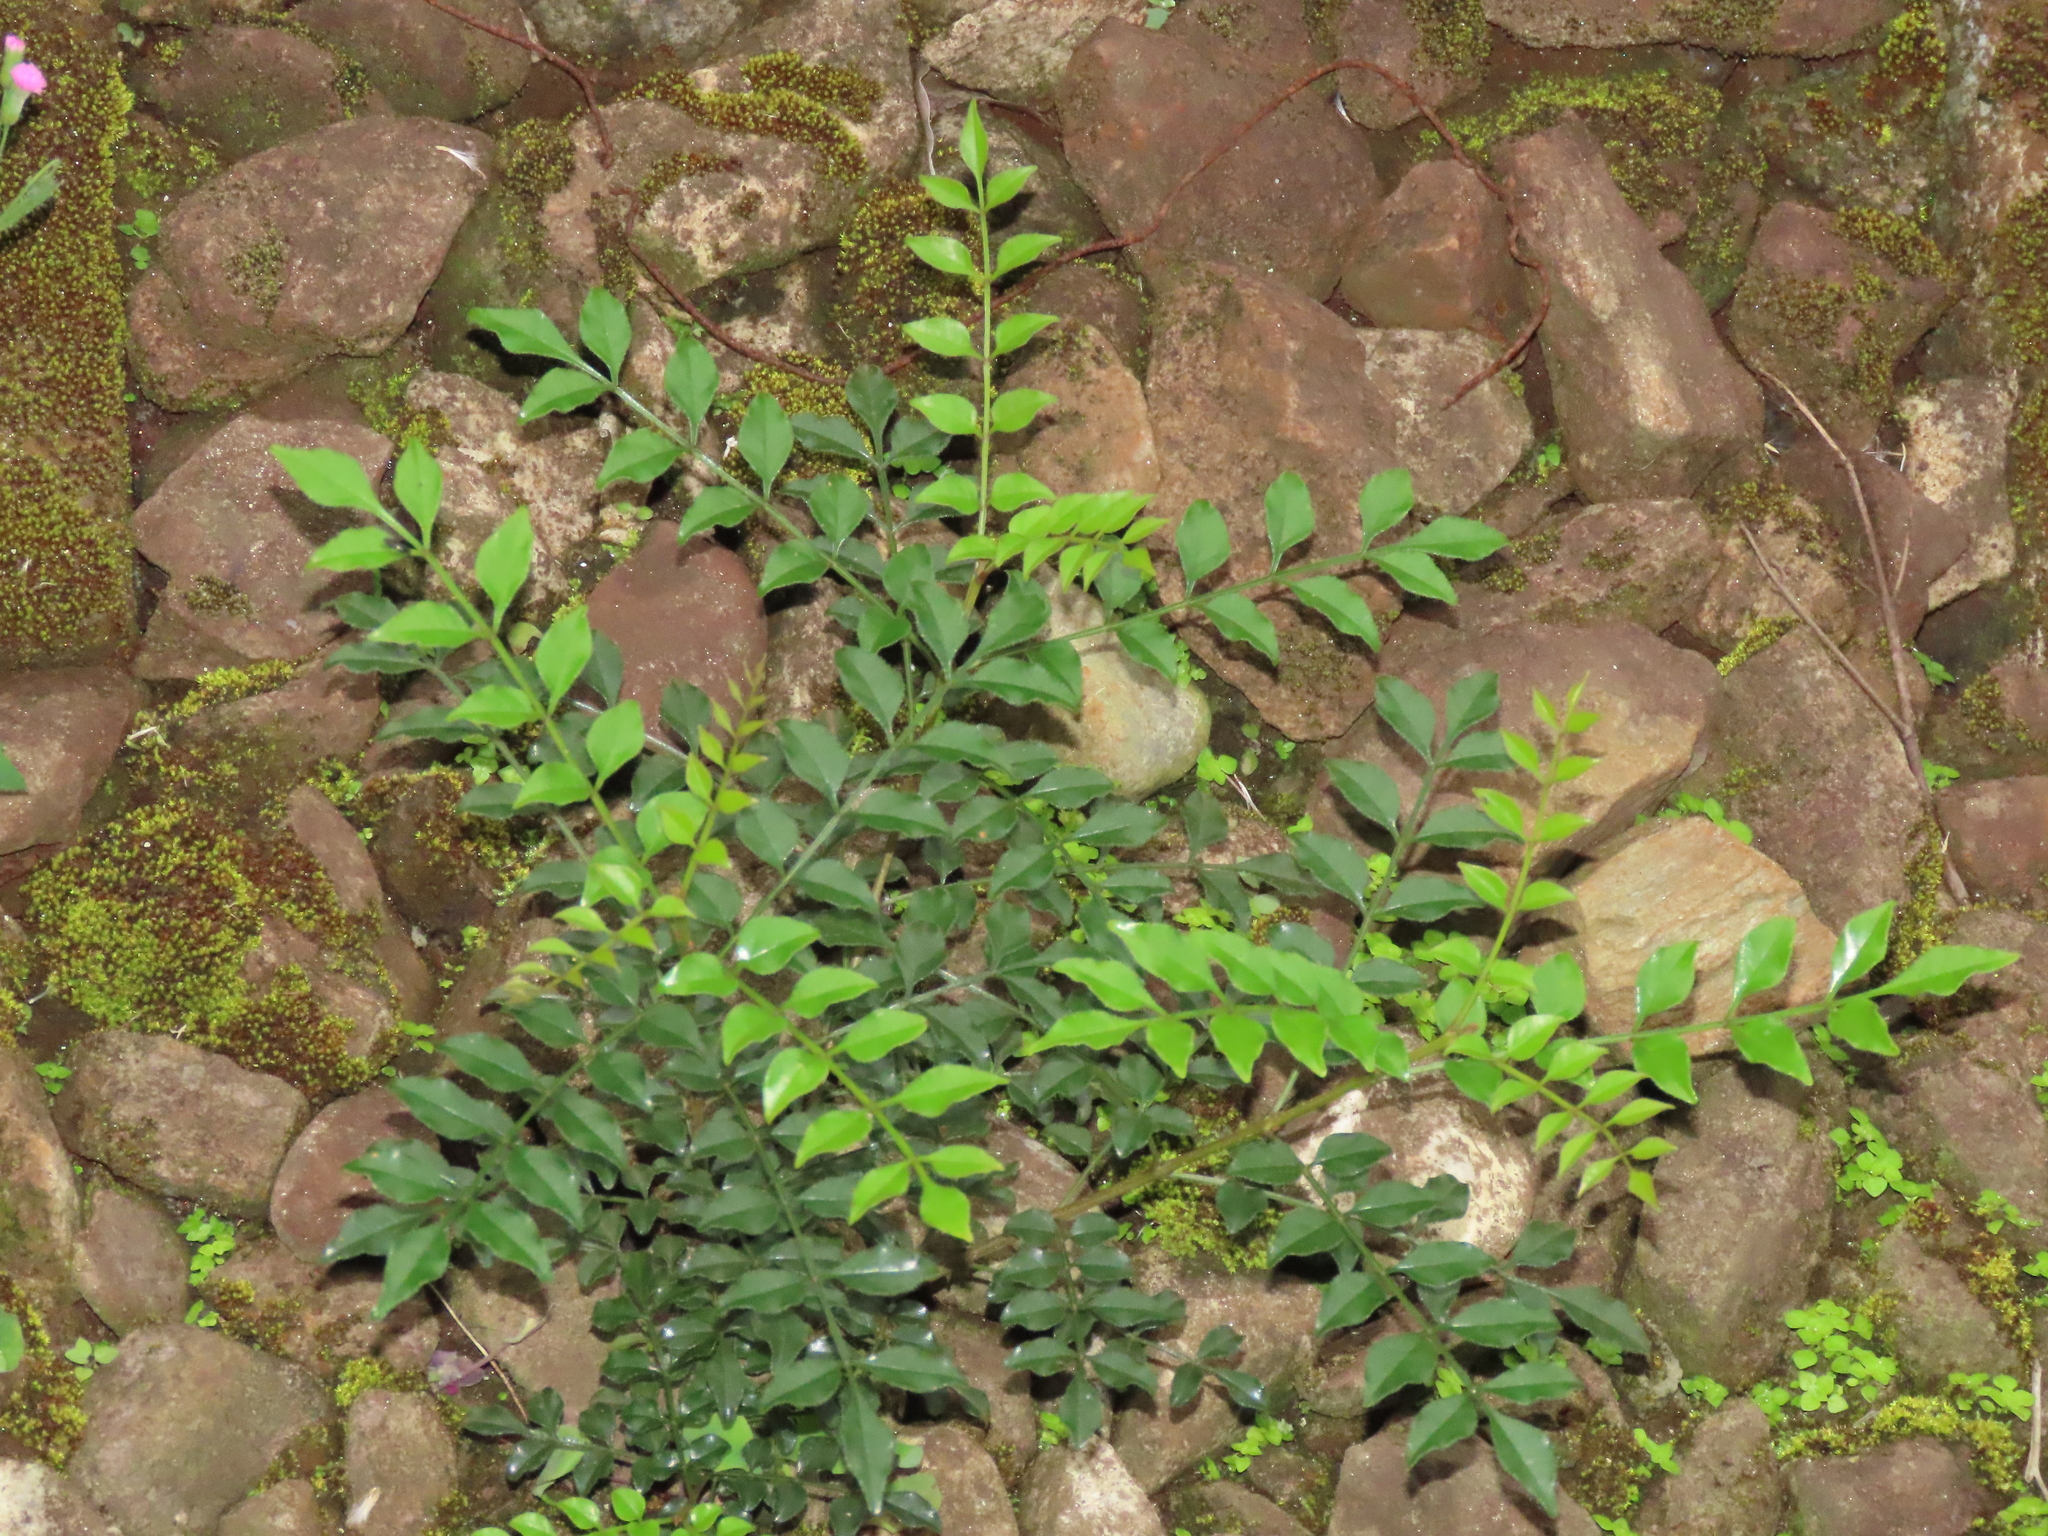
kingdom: Plantae
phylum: Tracheophyta
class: Magnoliopsida
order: Lamiales
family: Oleaceae
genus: Fraxinus
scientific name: Fraxinus griffithii
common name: Himalayan ash
